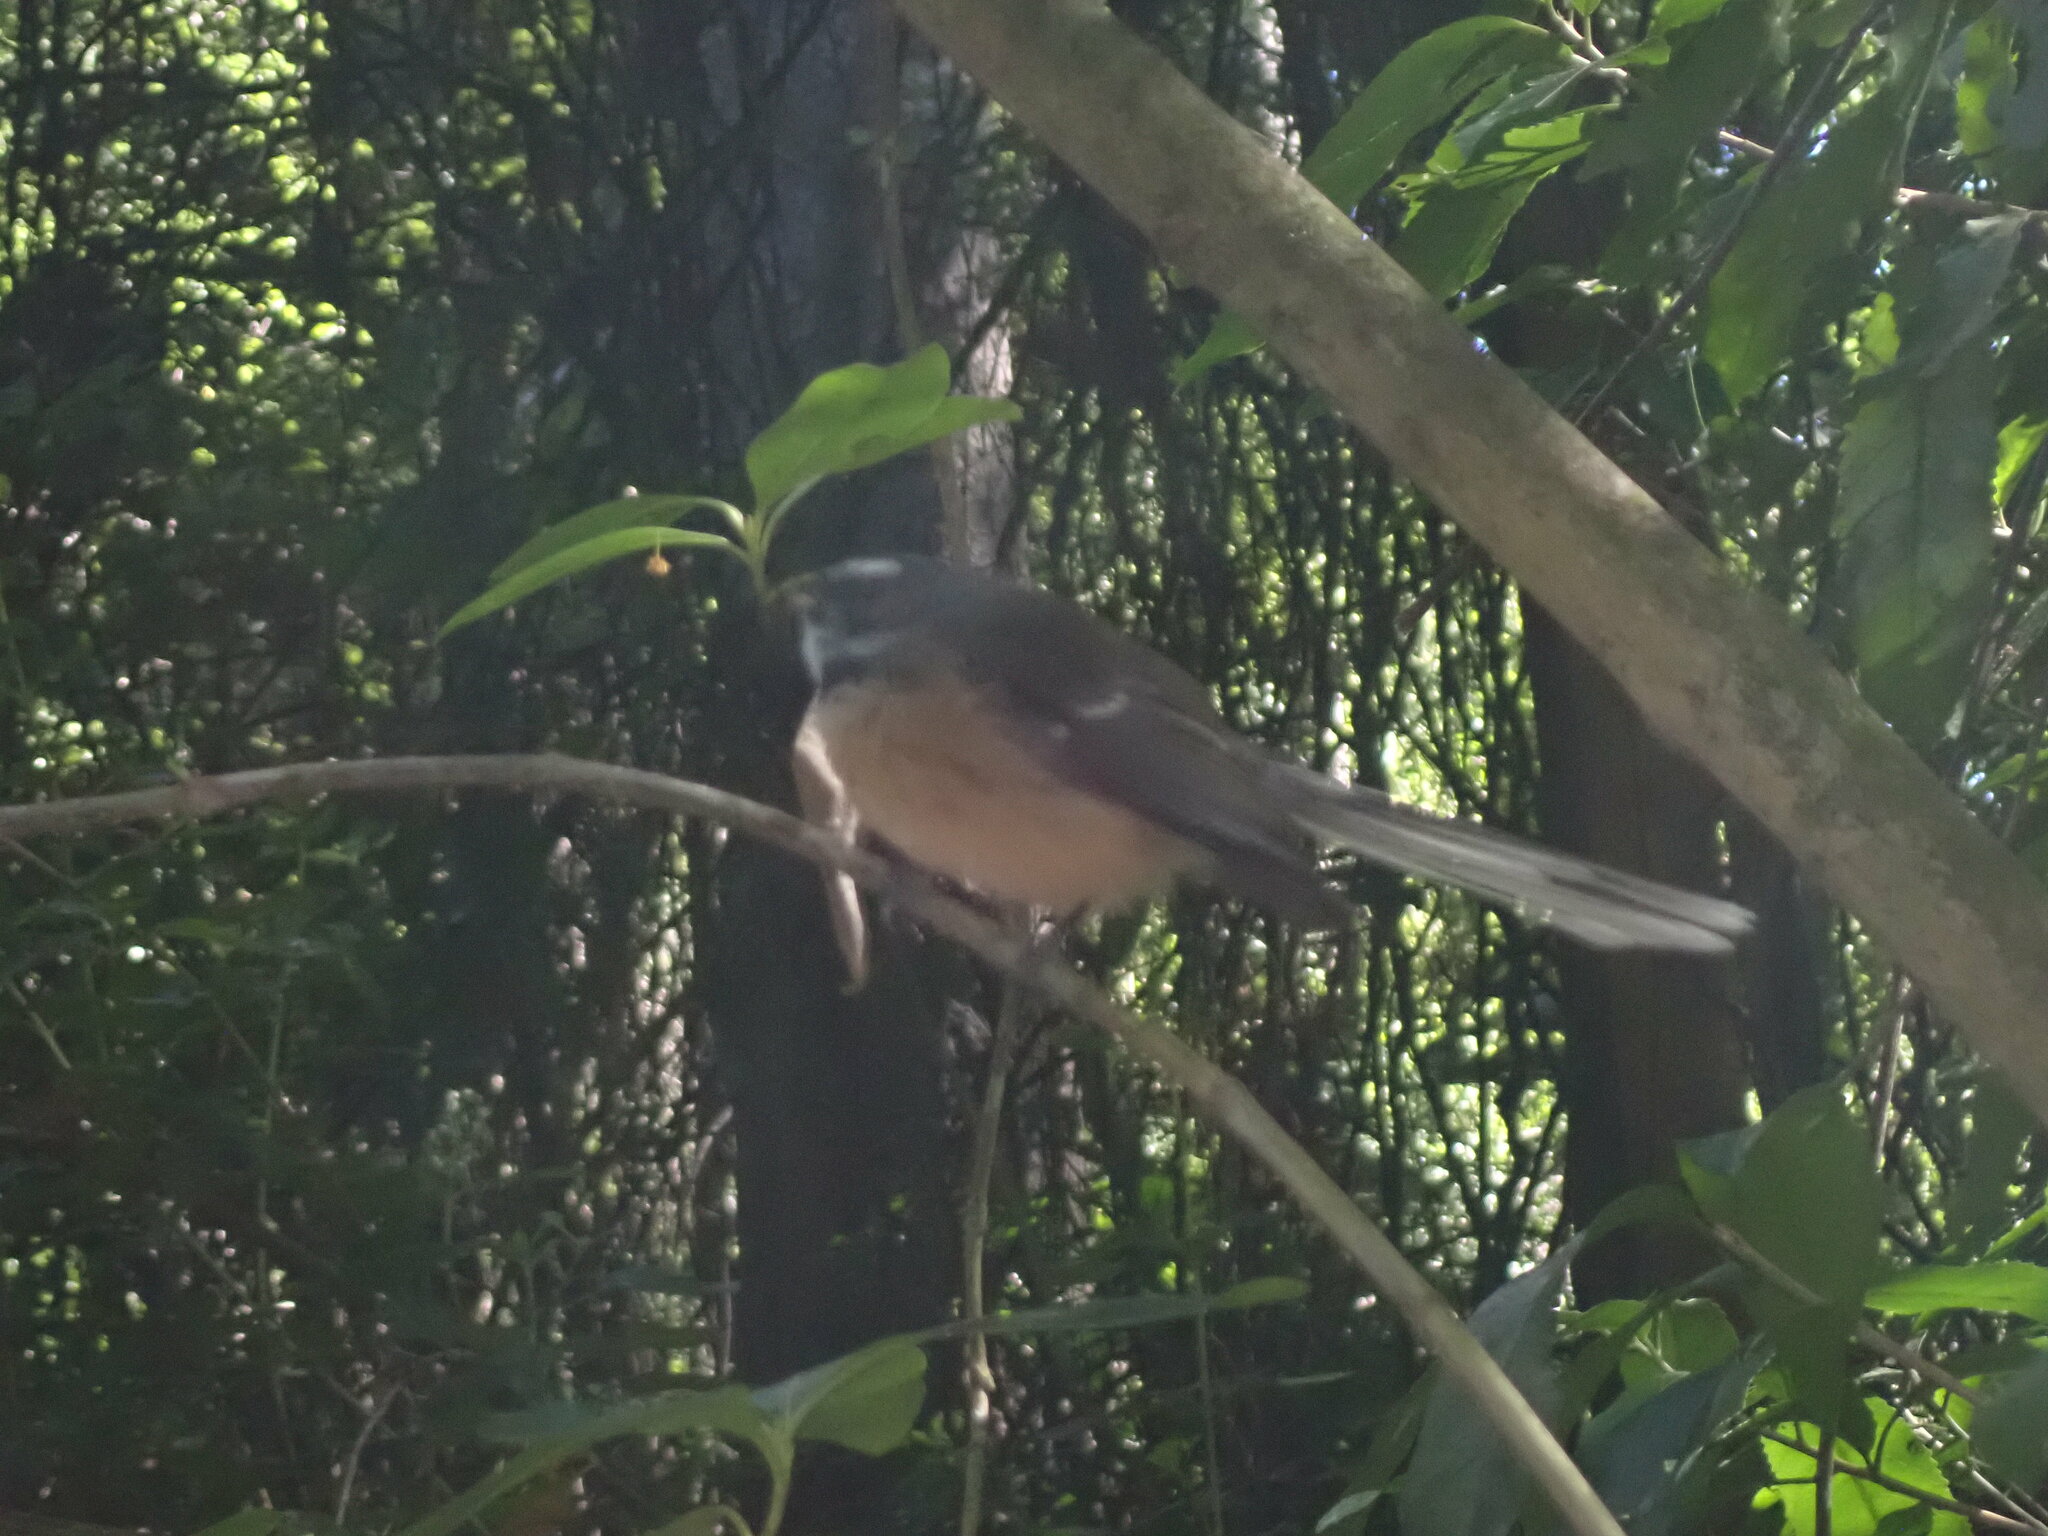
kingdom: Animalia
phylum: Chordata
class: Aves
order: Passeriformes
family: Rhipiduridae
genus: Rhipidura
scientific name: Rhipidura fuliginosa
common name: New zealand fantail
